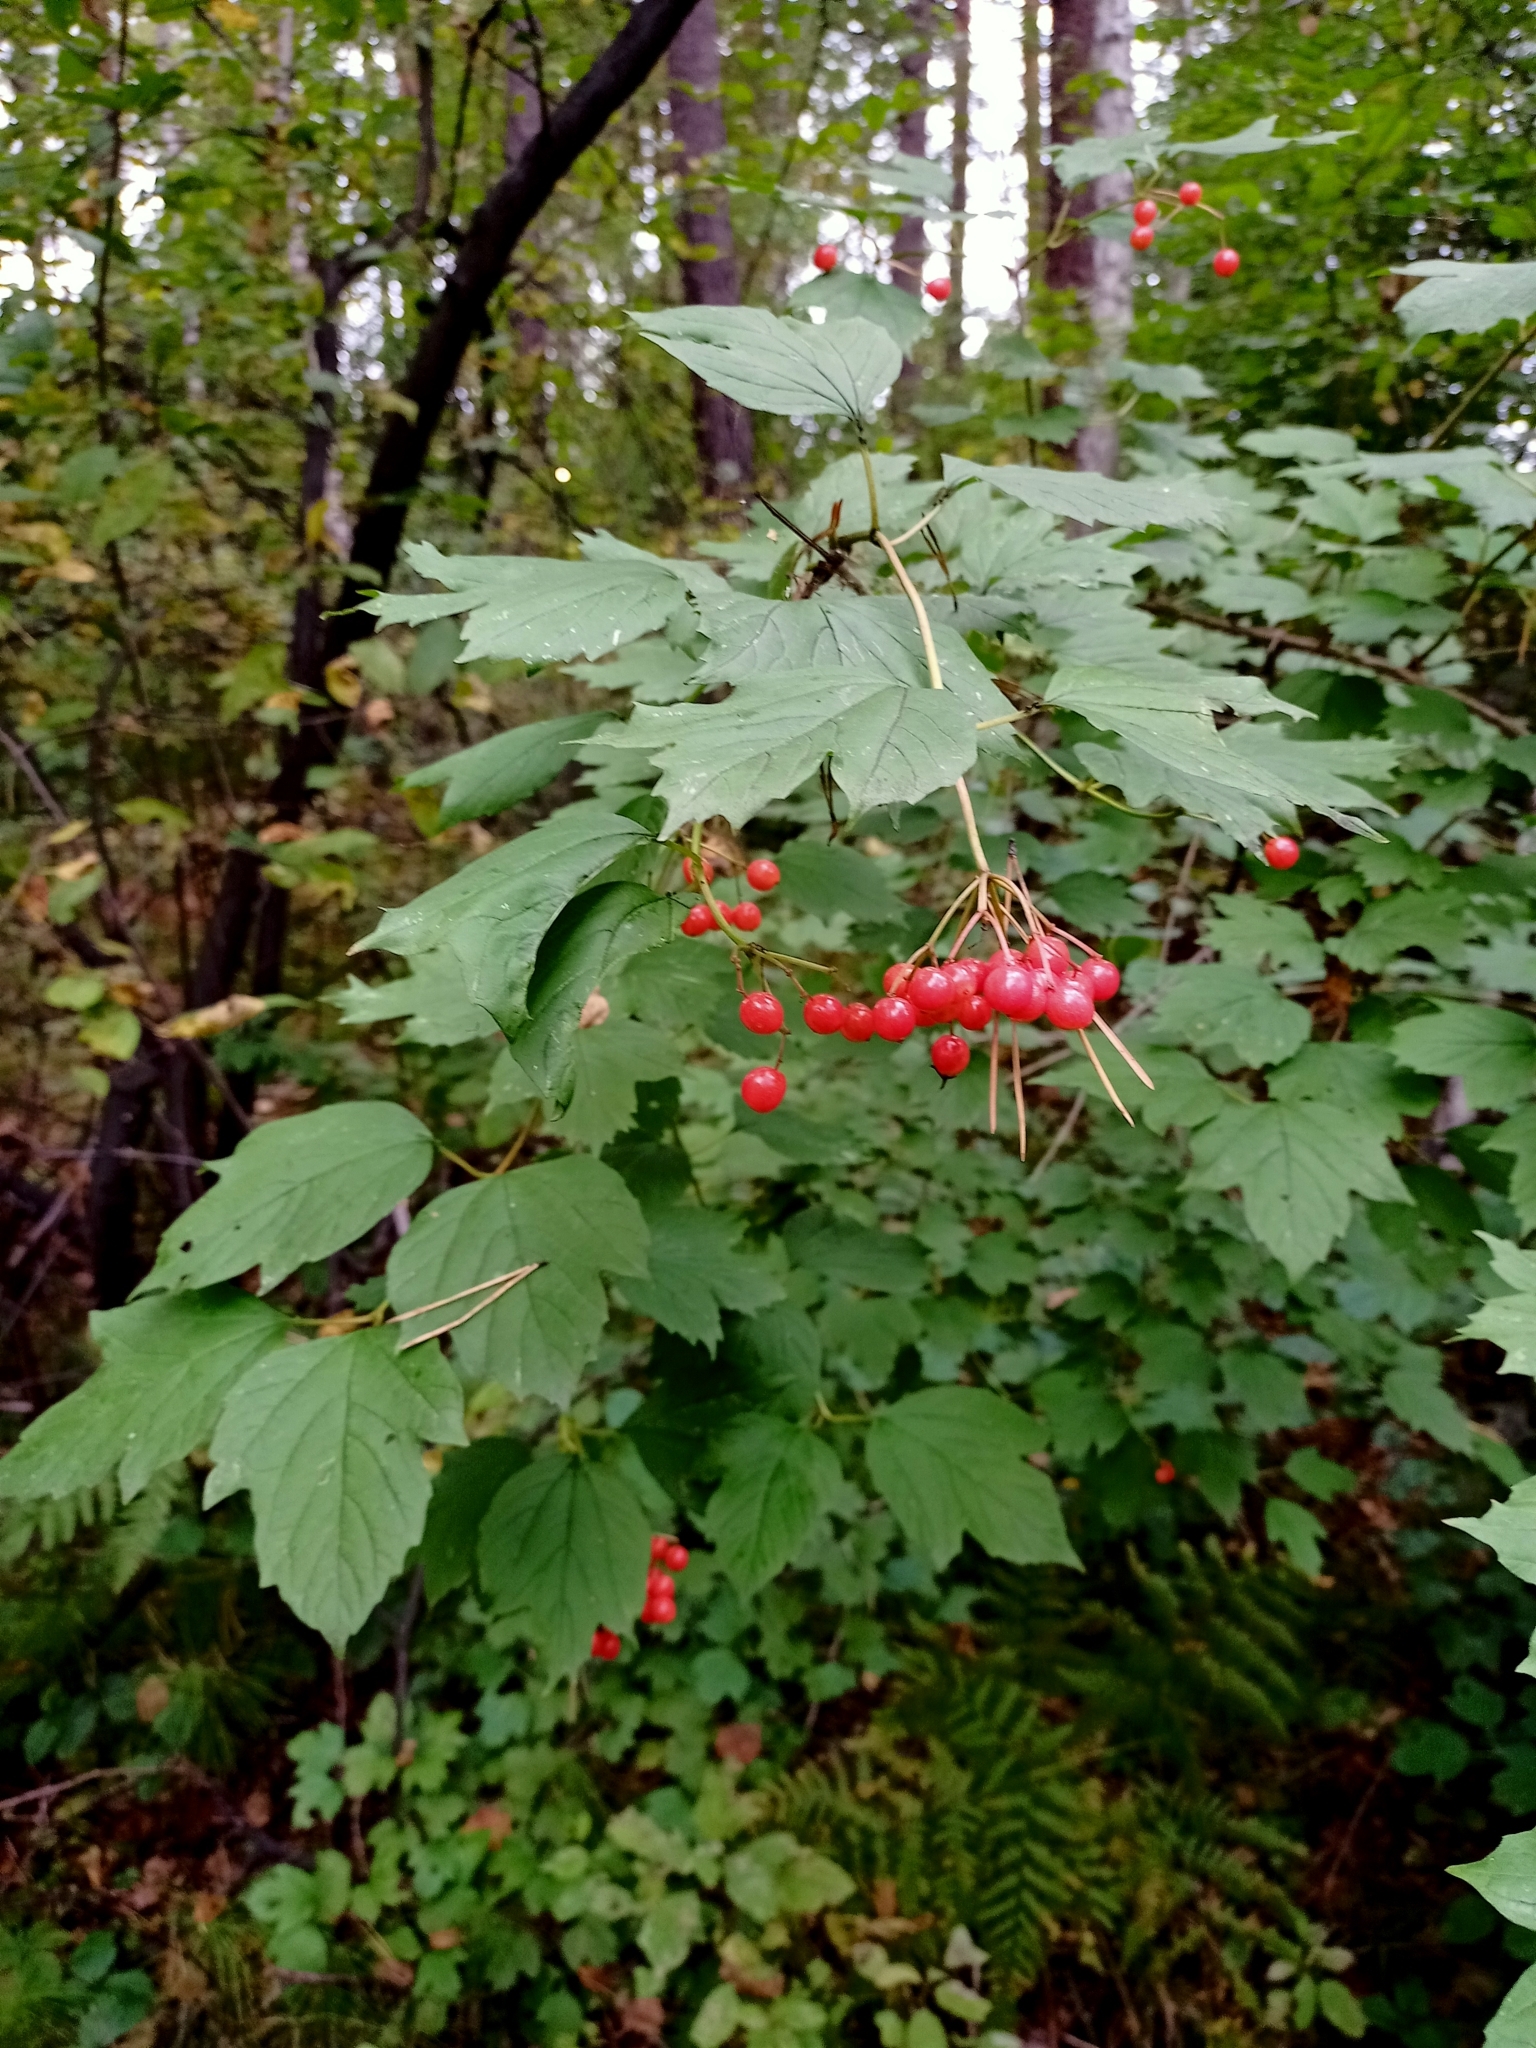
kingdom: Plantae
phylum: Tracheophyta
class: Magnoliopsida
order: Dipsacales
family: Viburnaceae
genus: Viburnum
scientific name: Viburnum opulus
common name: Guelder-rose
